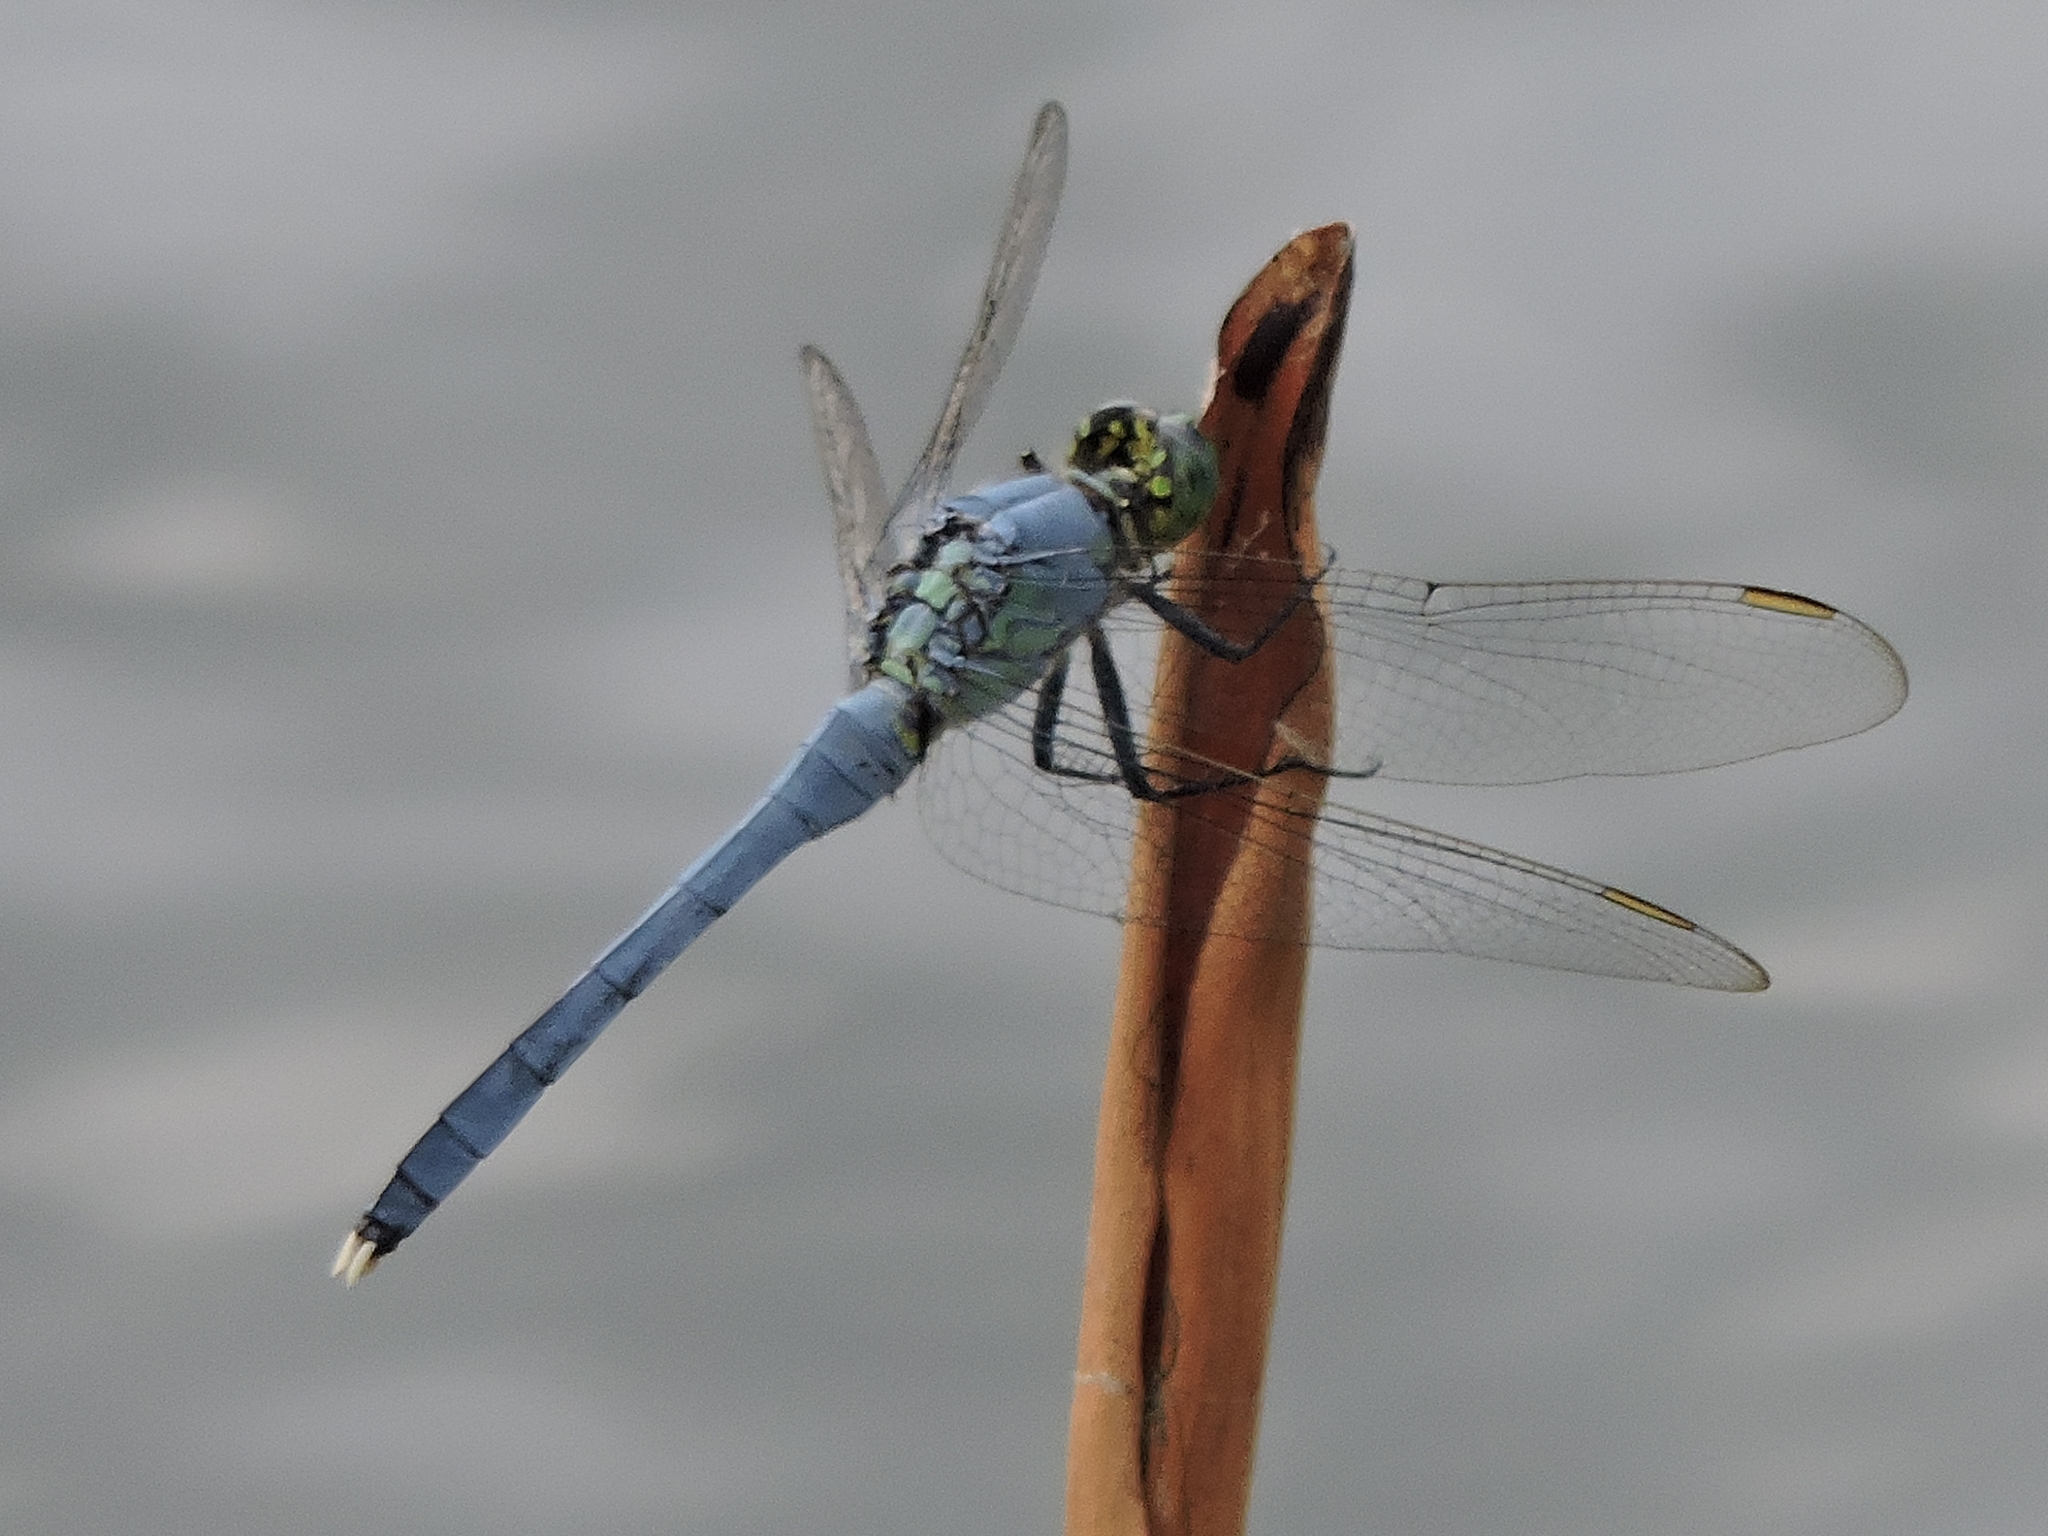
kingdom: Animalia
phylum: Arthropoda
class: Insecta
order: Odonata
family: Libellulidae
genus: Erythemis
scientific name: Erythemis simplicicollis
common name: Eastern pondhawk
